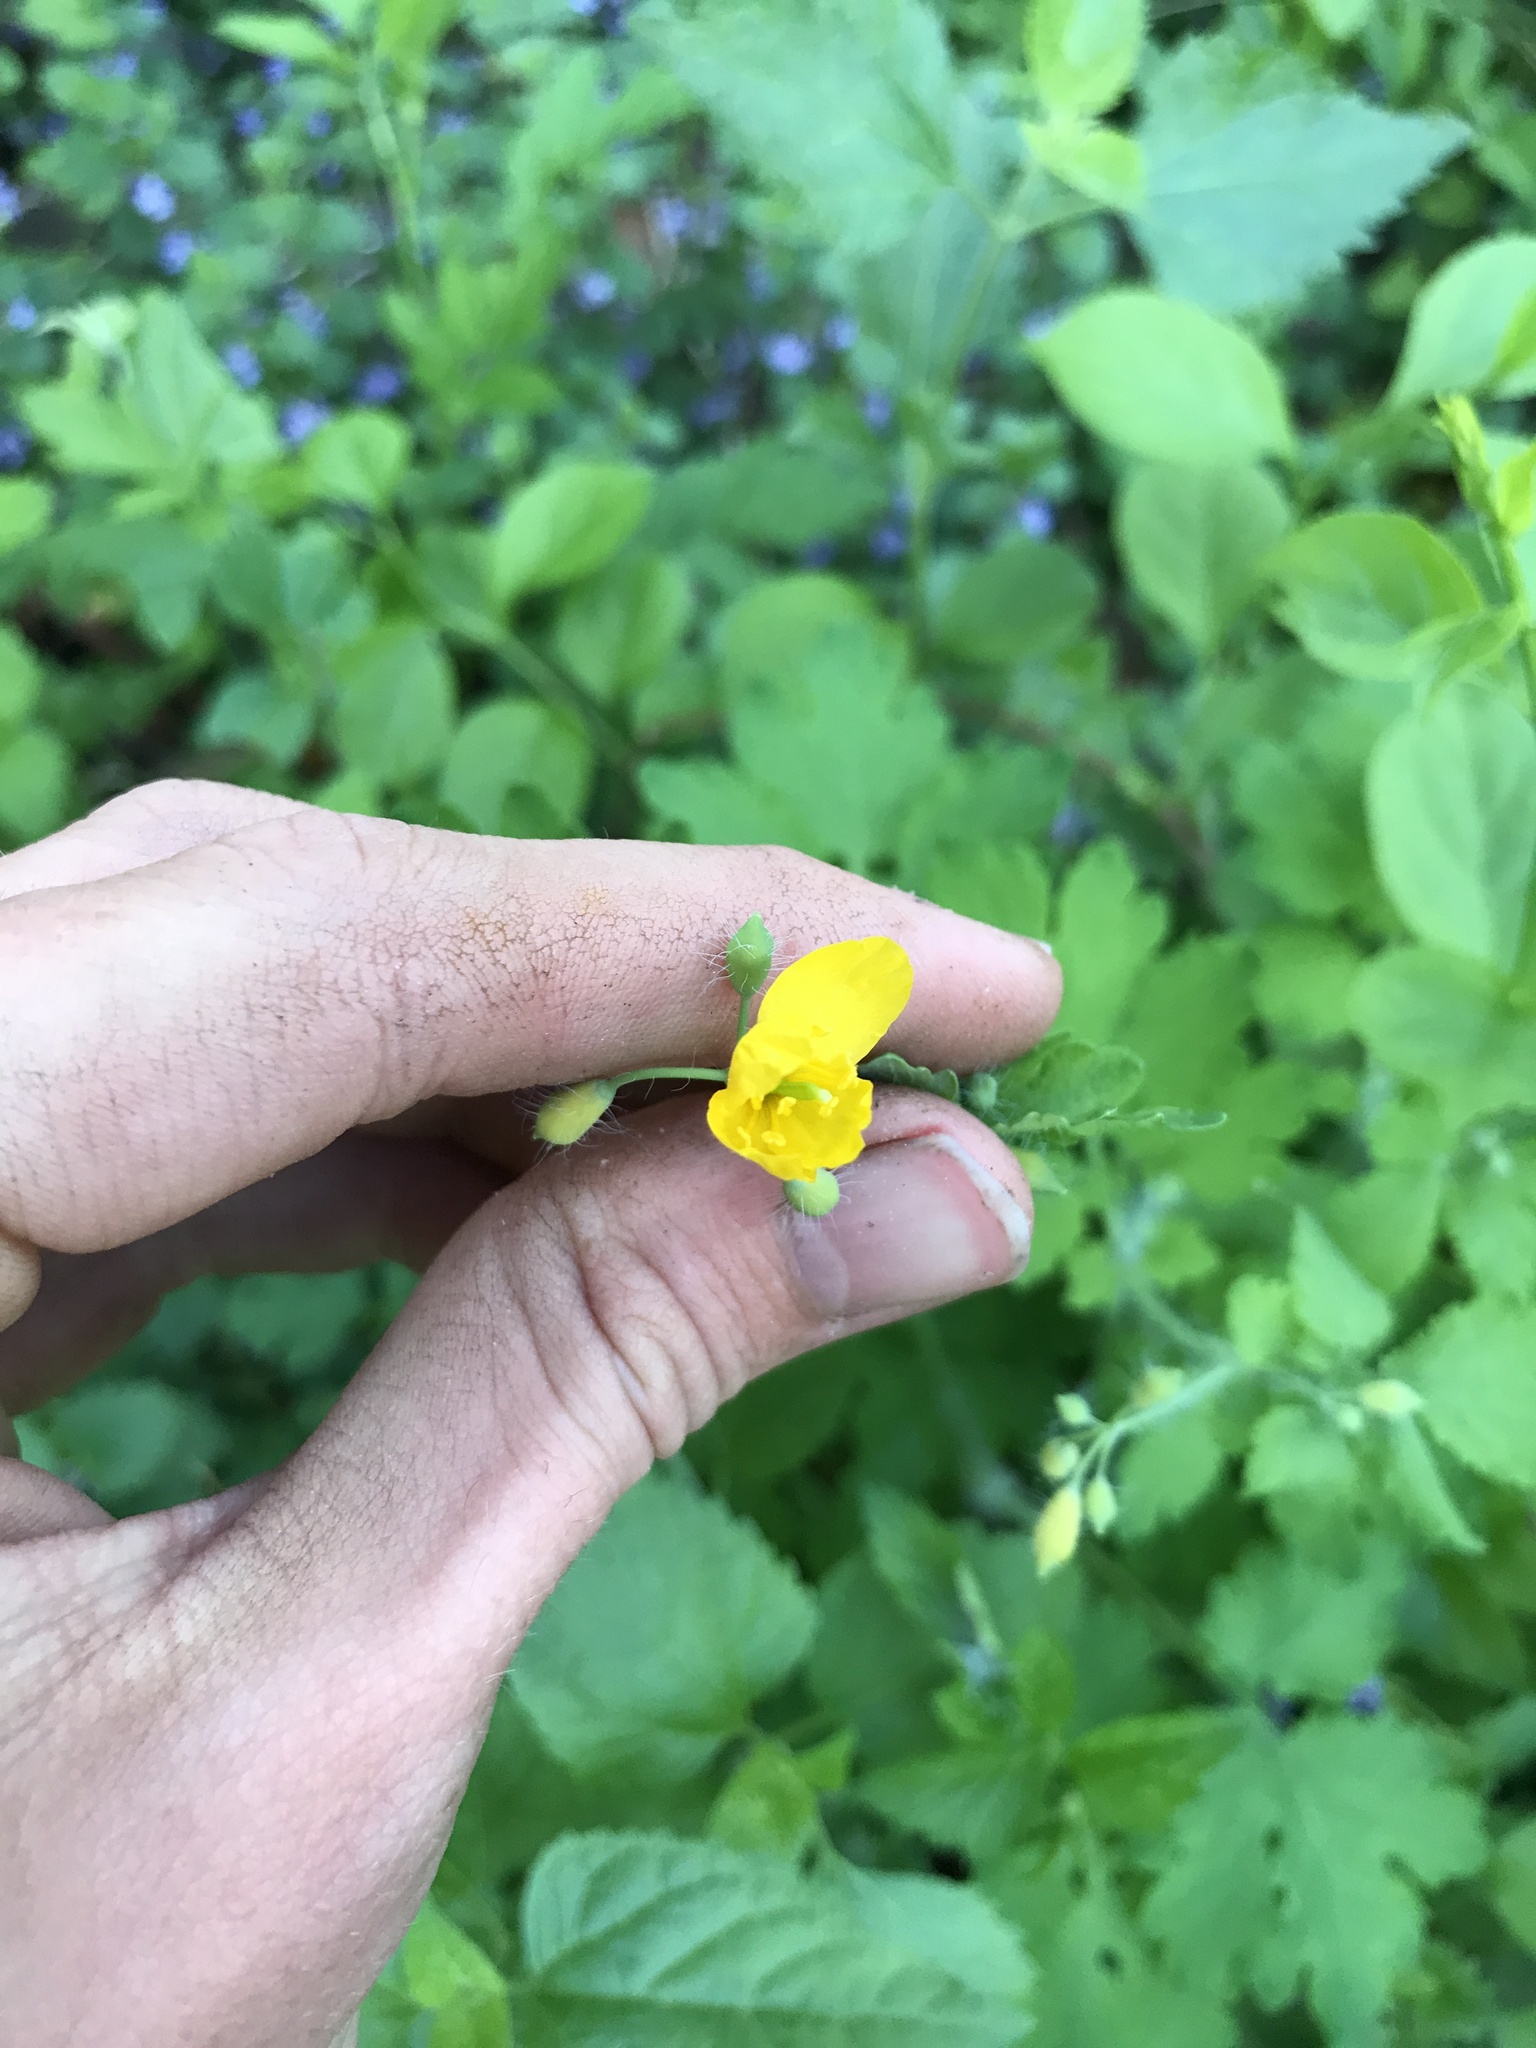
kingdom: Plantae
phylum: Tracheophyta
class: Magnoliopsida
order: Ranunculales
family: Papaveraceae
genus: Chelidonium
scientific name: Chelidonium majus
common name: Greater celandine
